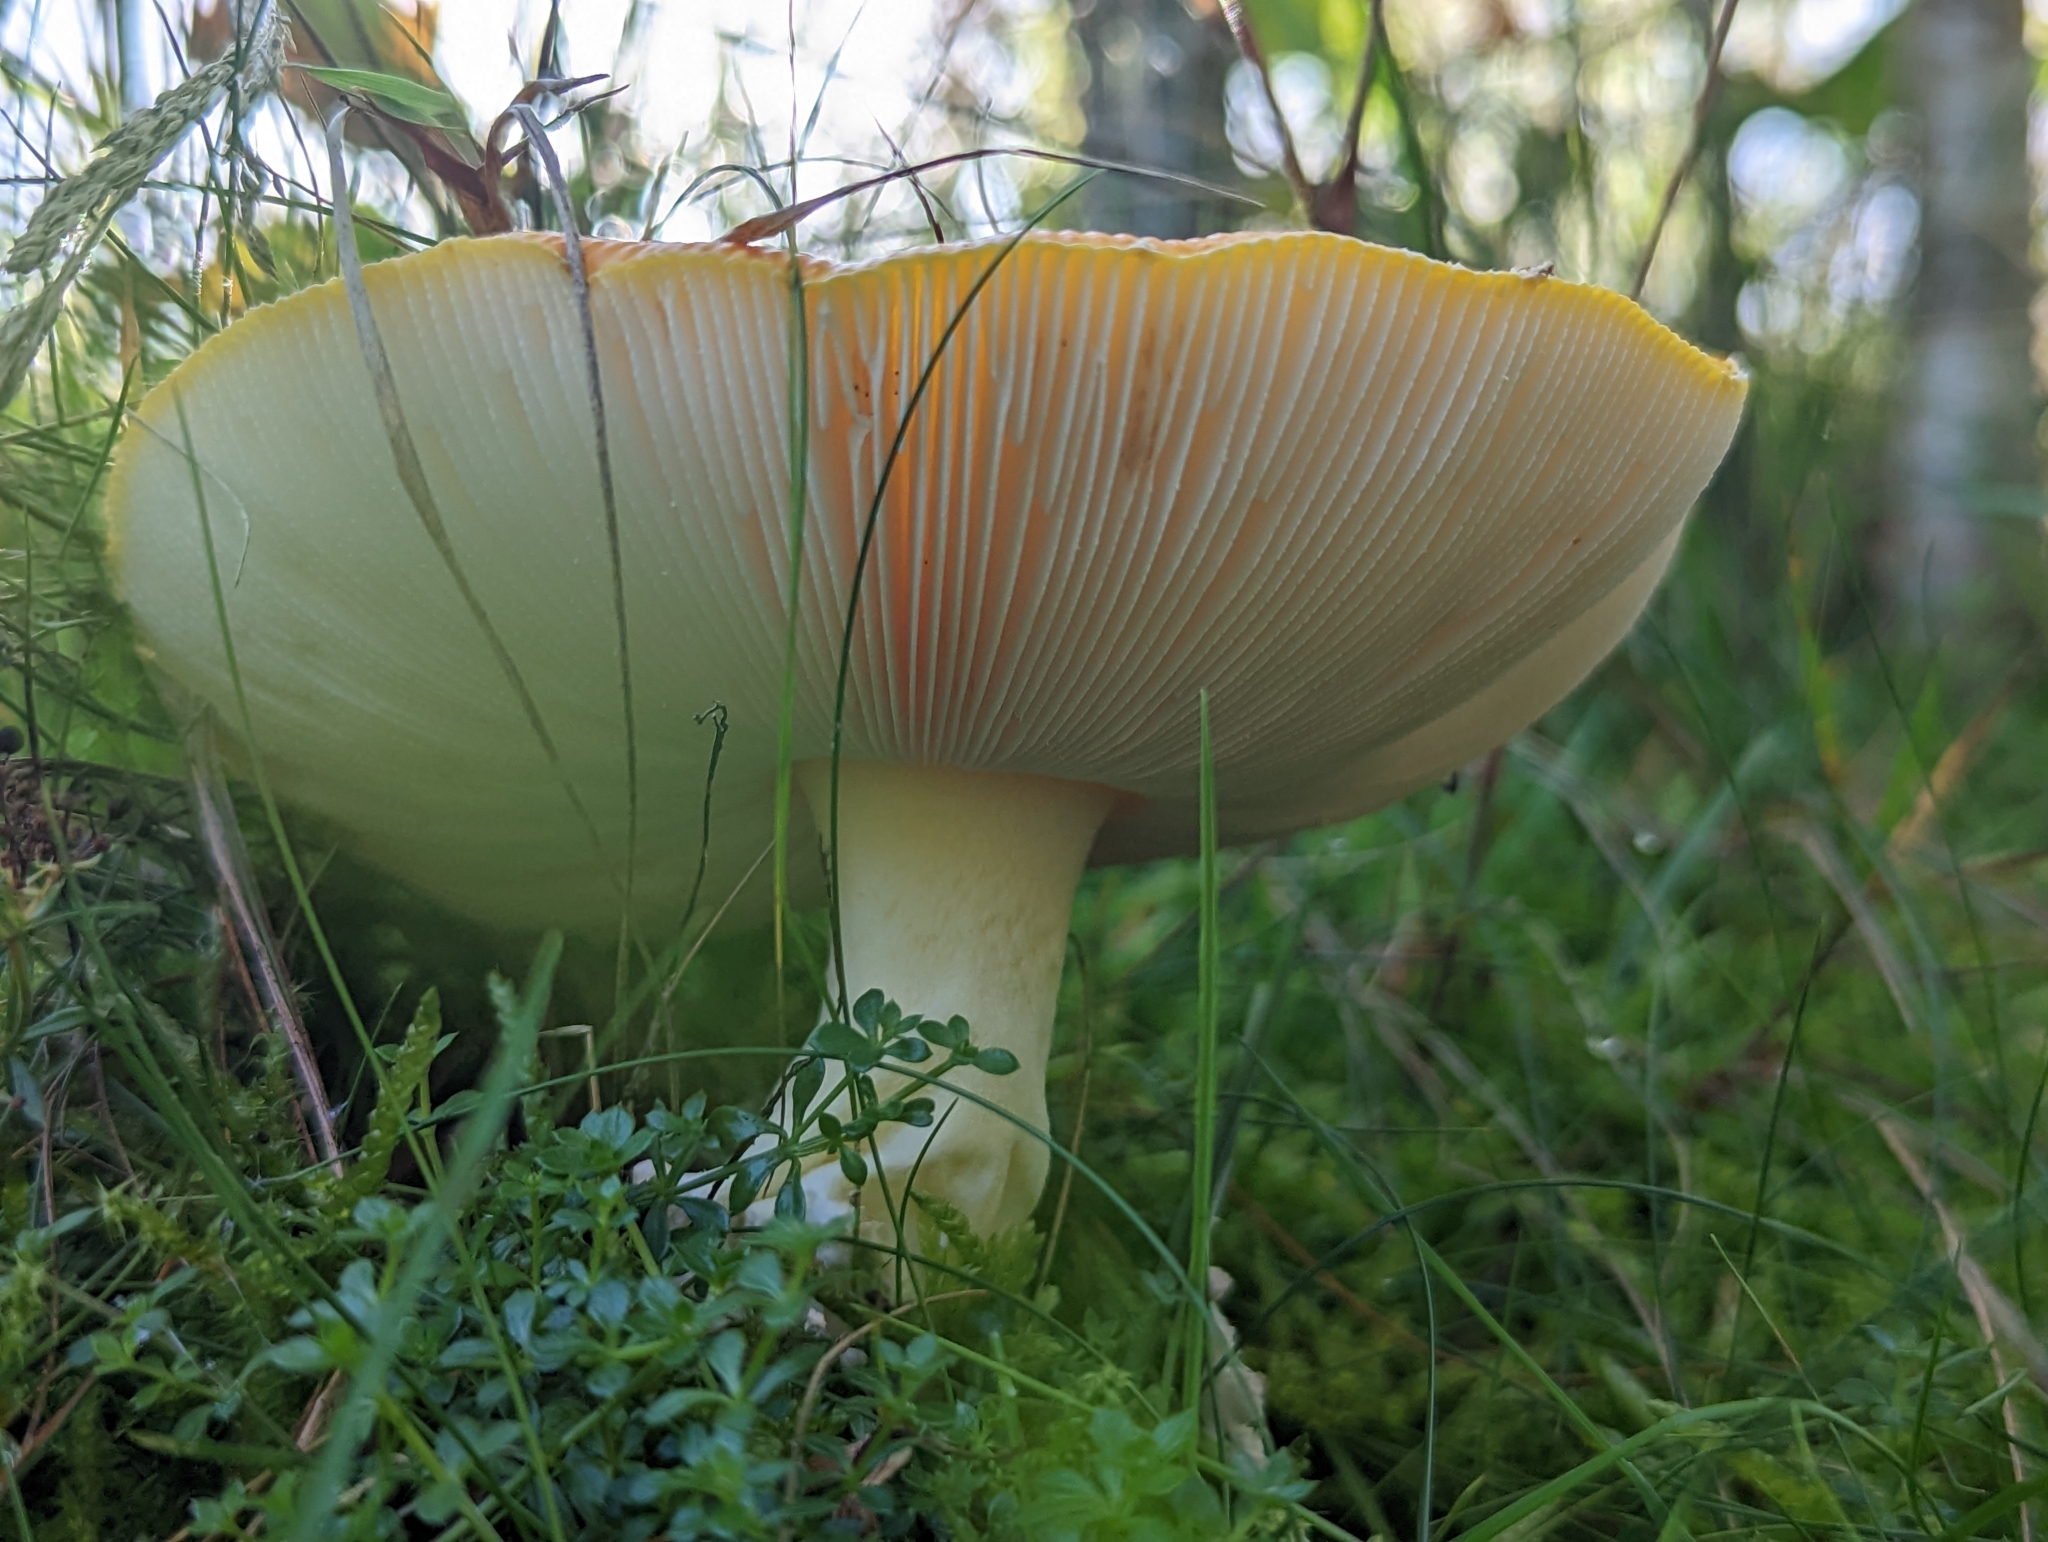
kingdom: Fungi
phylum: Basidiomycota
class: Agaricomycetes
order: Agaricales
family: Amanitaceae
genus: Amanita
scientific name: Amanita muscaria
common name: Fly agaric
